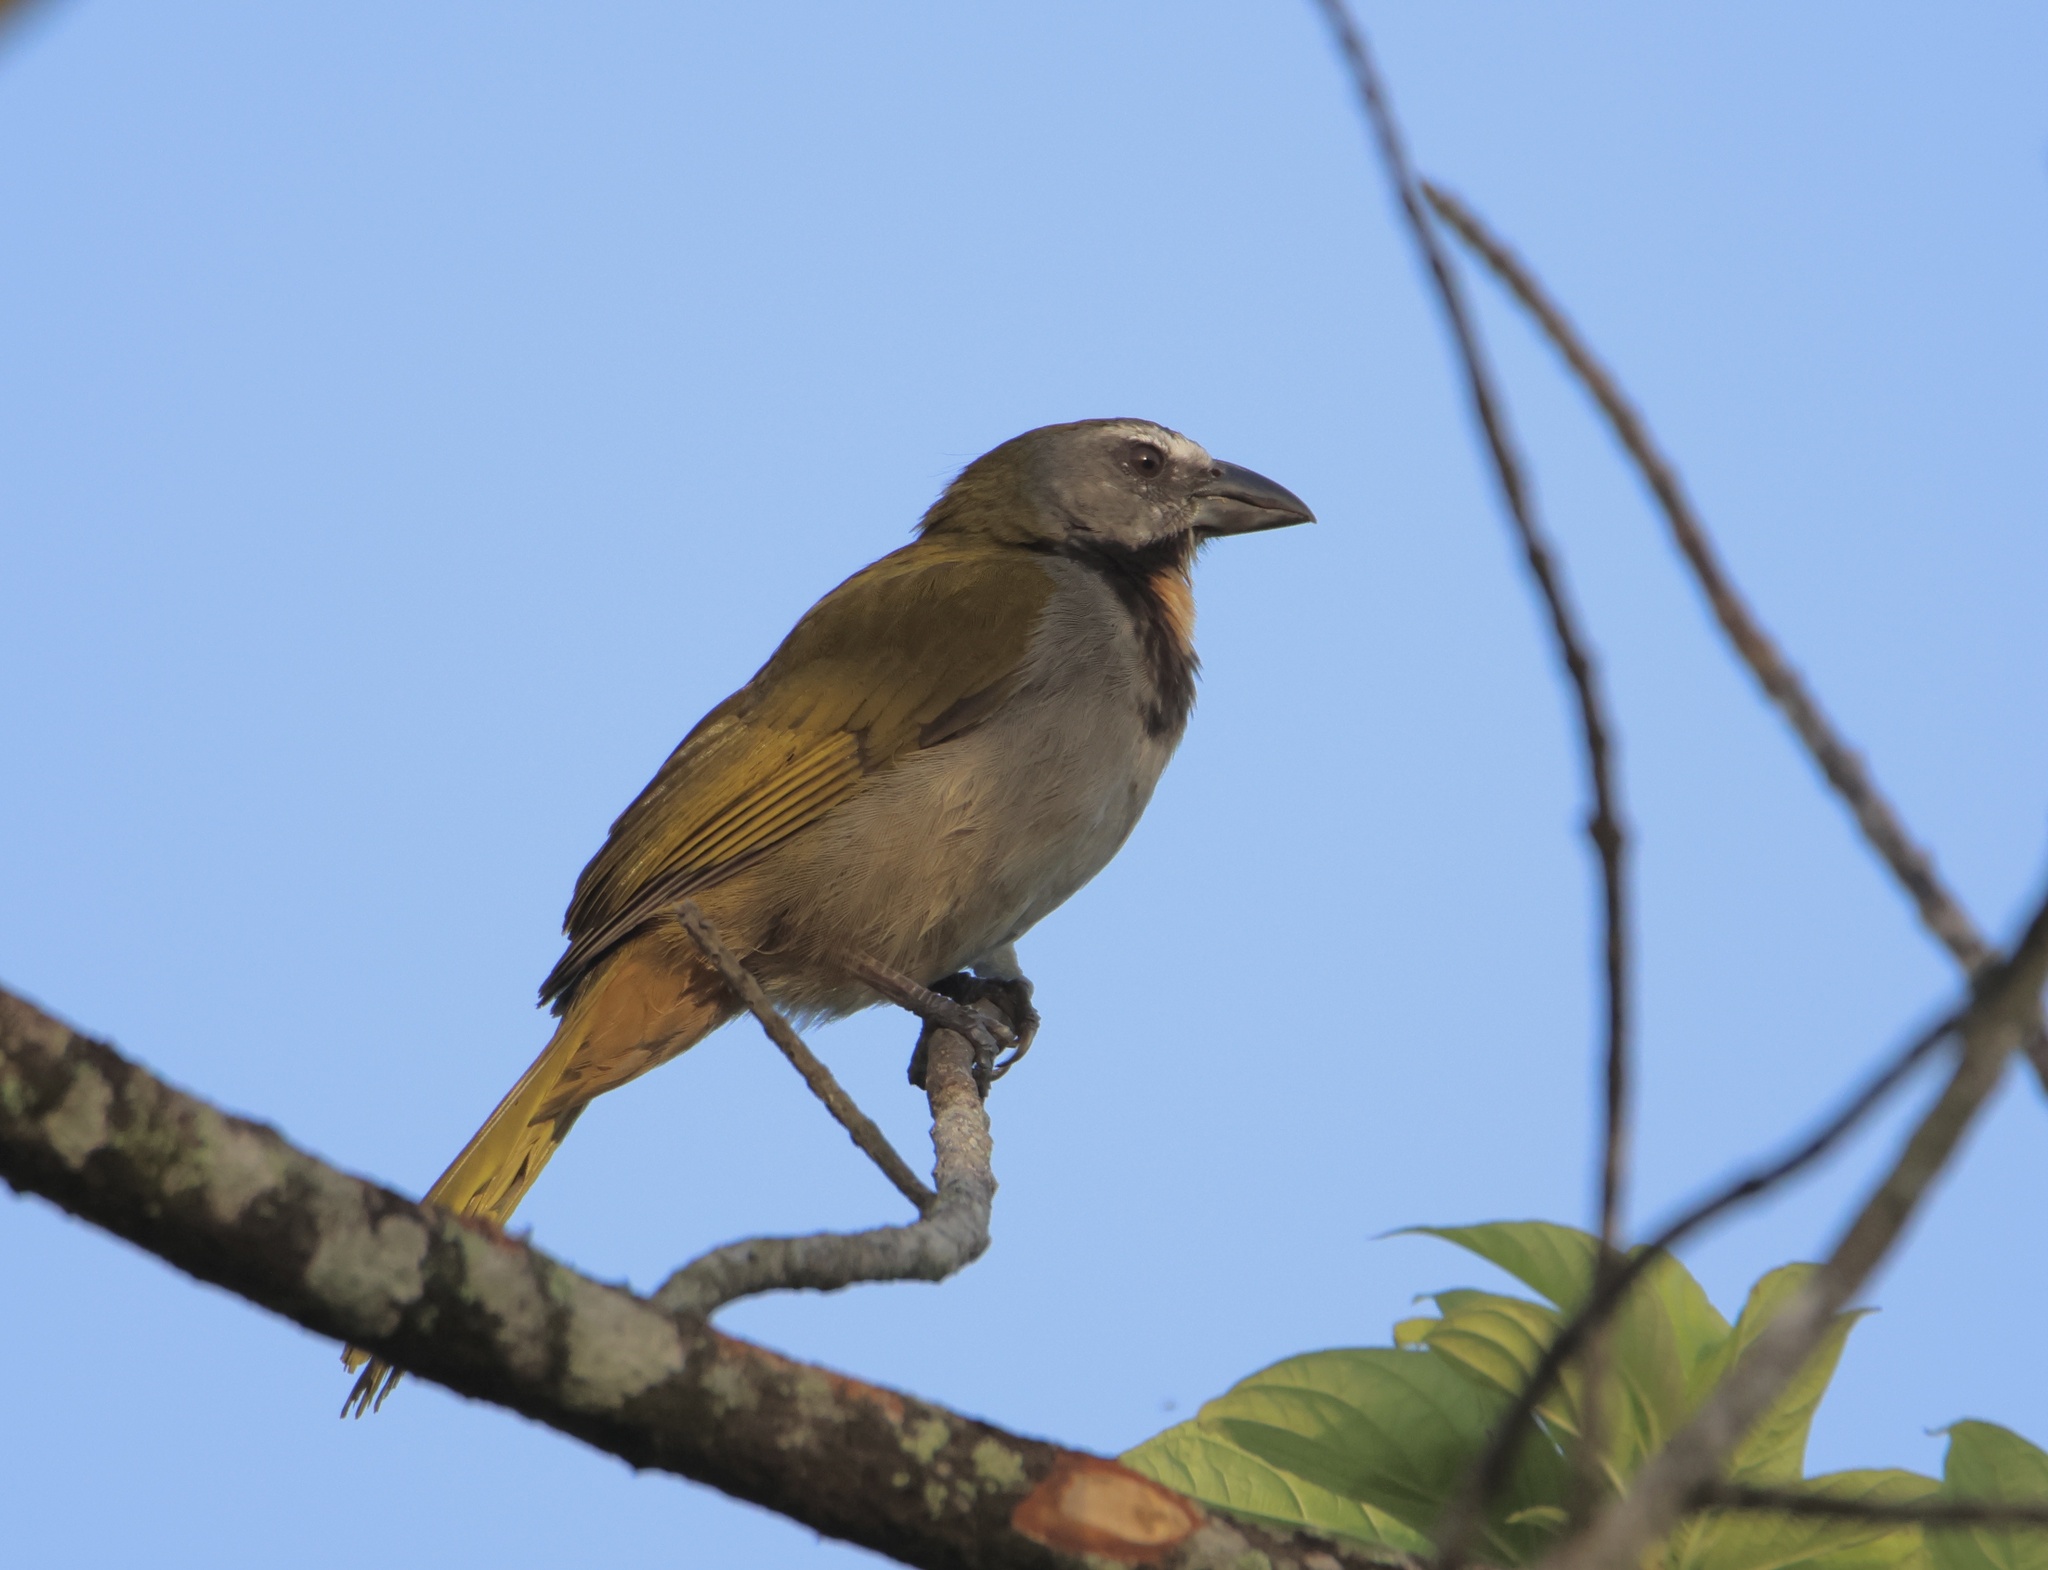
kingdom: Animalia
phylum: Chordata
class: Aves
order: Passeriformes
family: Thraupidae
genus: Saltator
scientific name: Saltator maximus
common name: Buff-throated saltator
